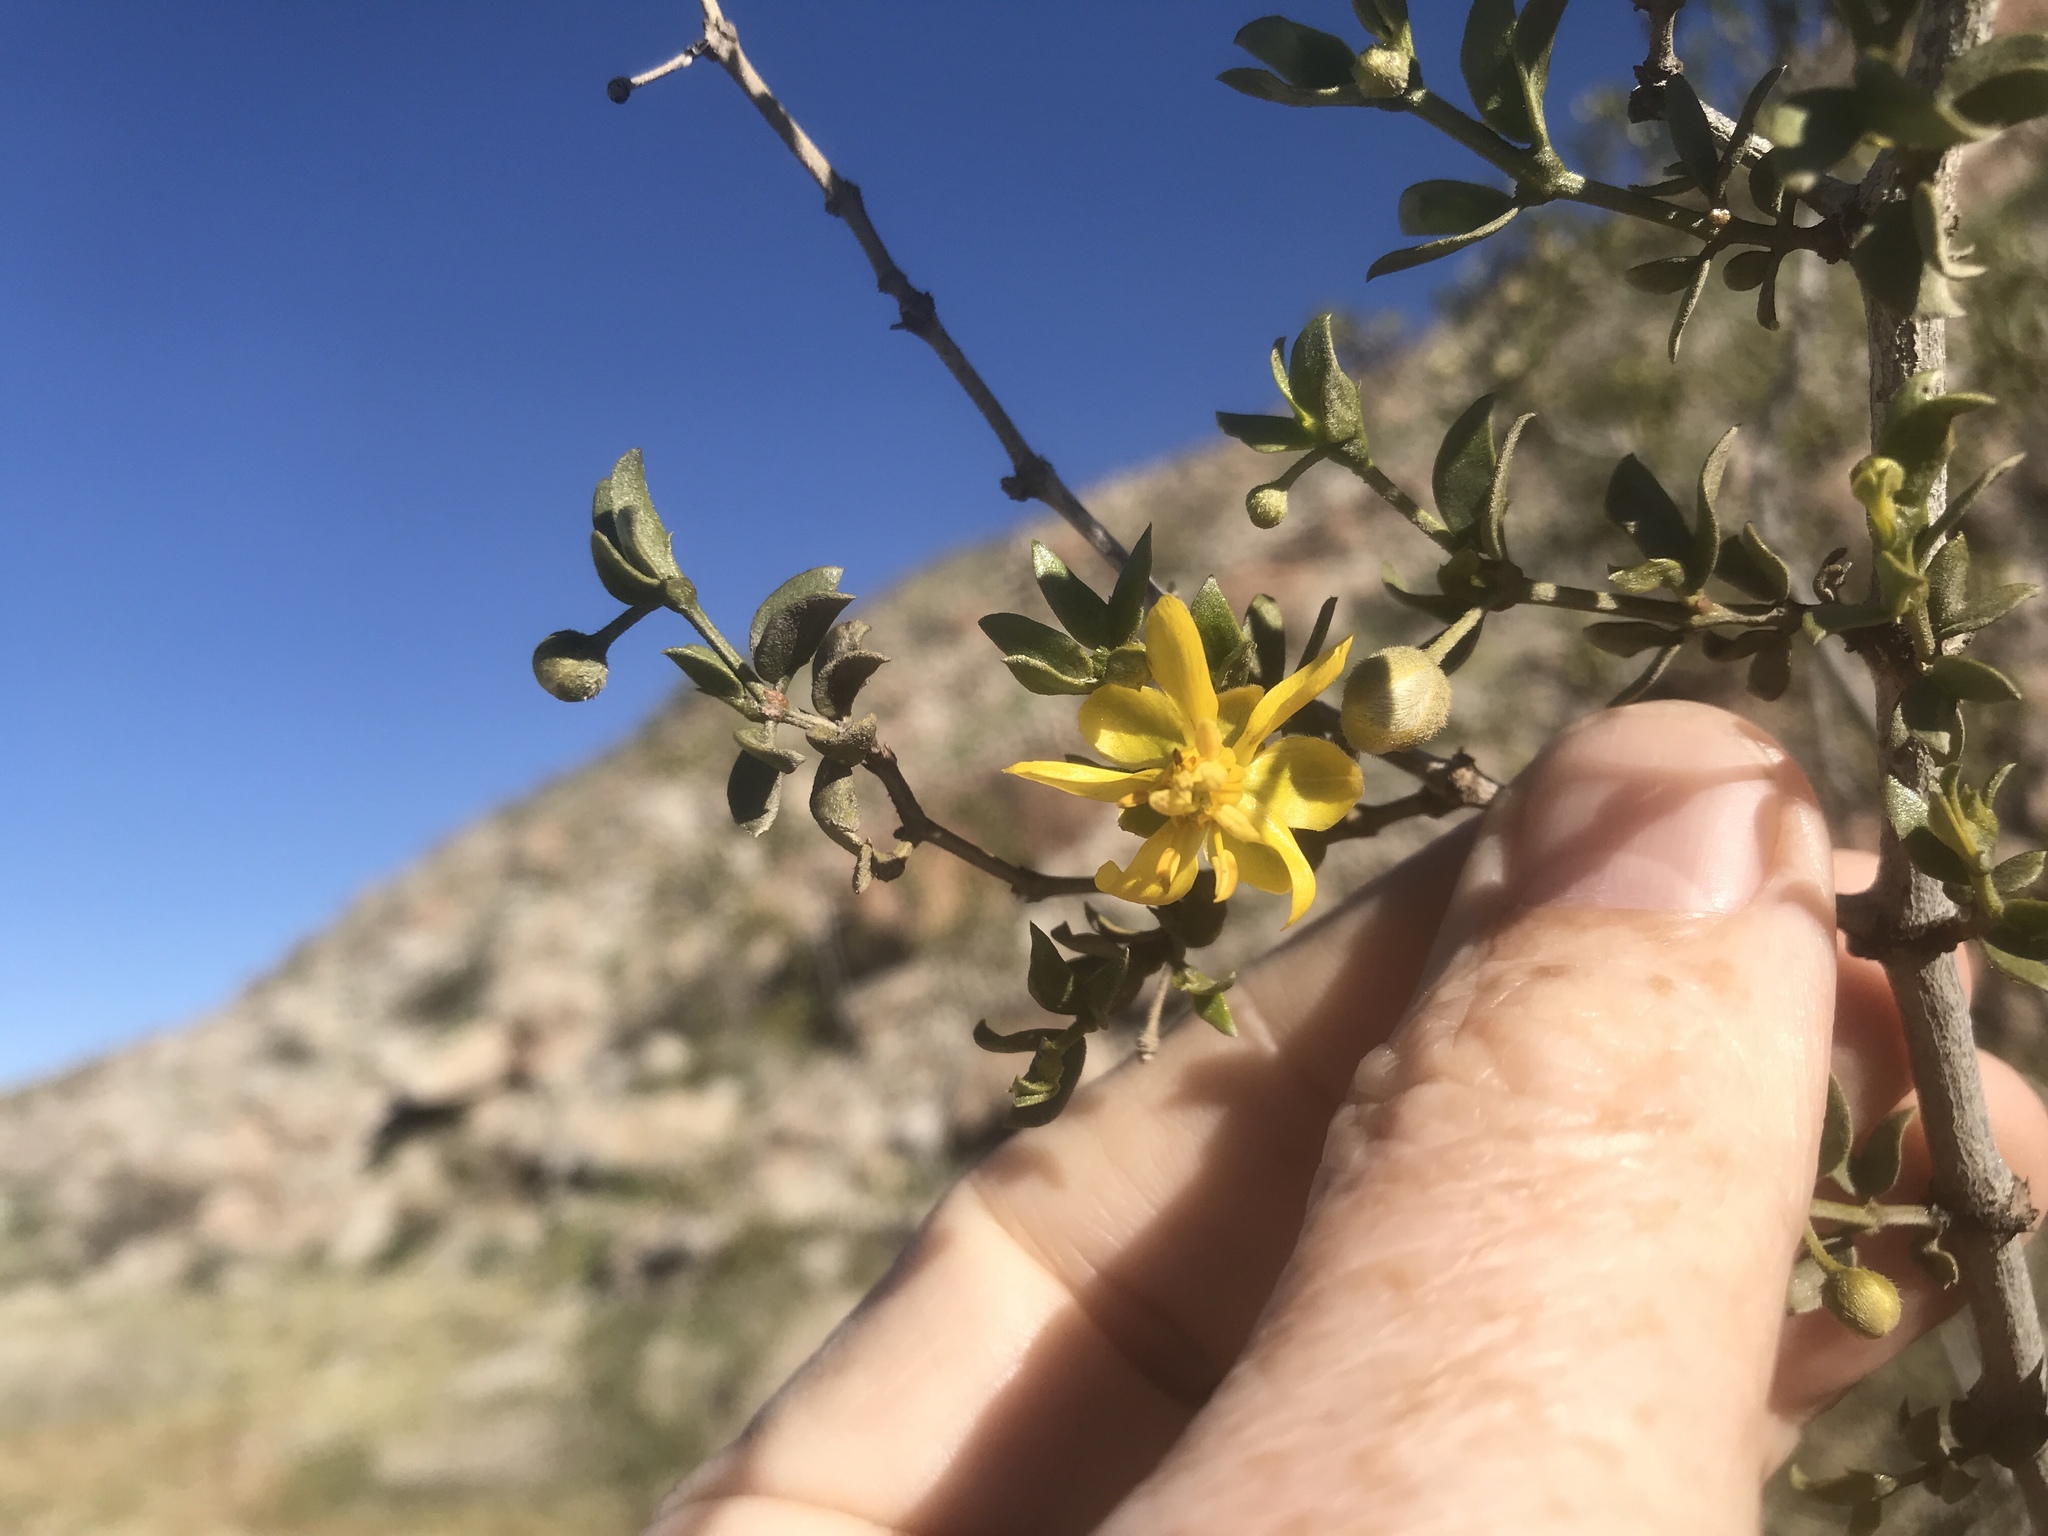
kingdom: Plantae
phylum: Tracheophyta
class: Magnoliopsida
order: Zygophyllales
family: Zygophyllaceae
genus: Larrea
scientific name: Larrea tridentata
